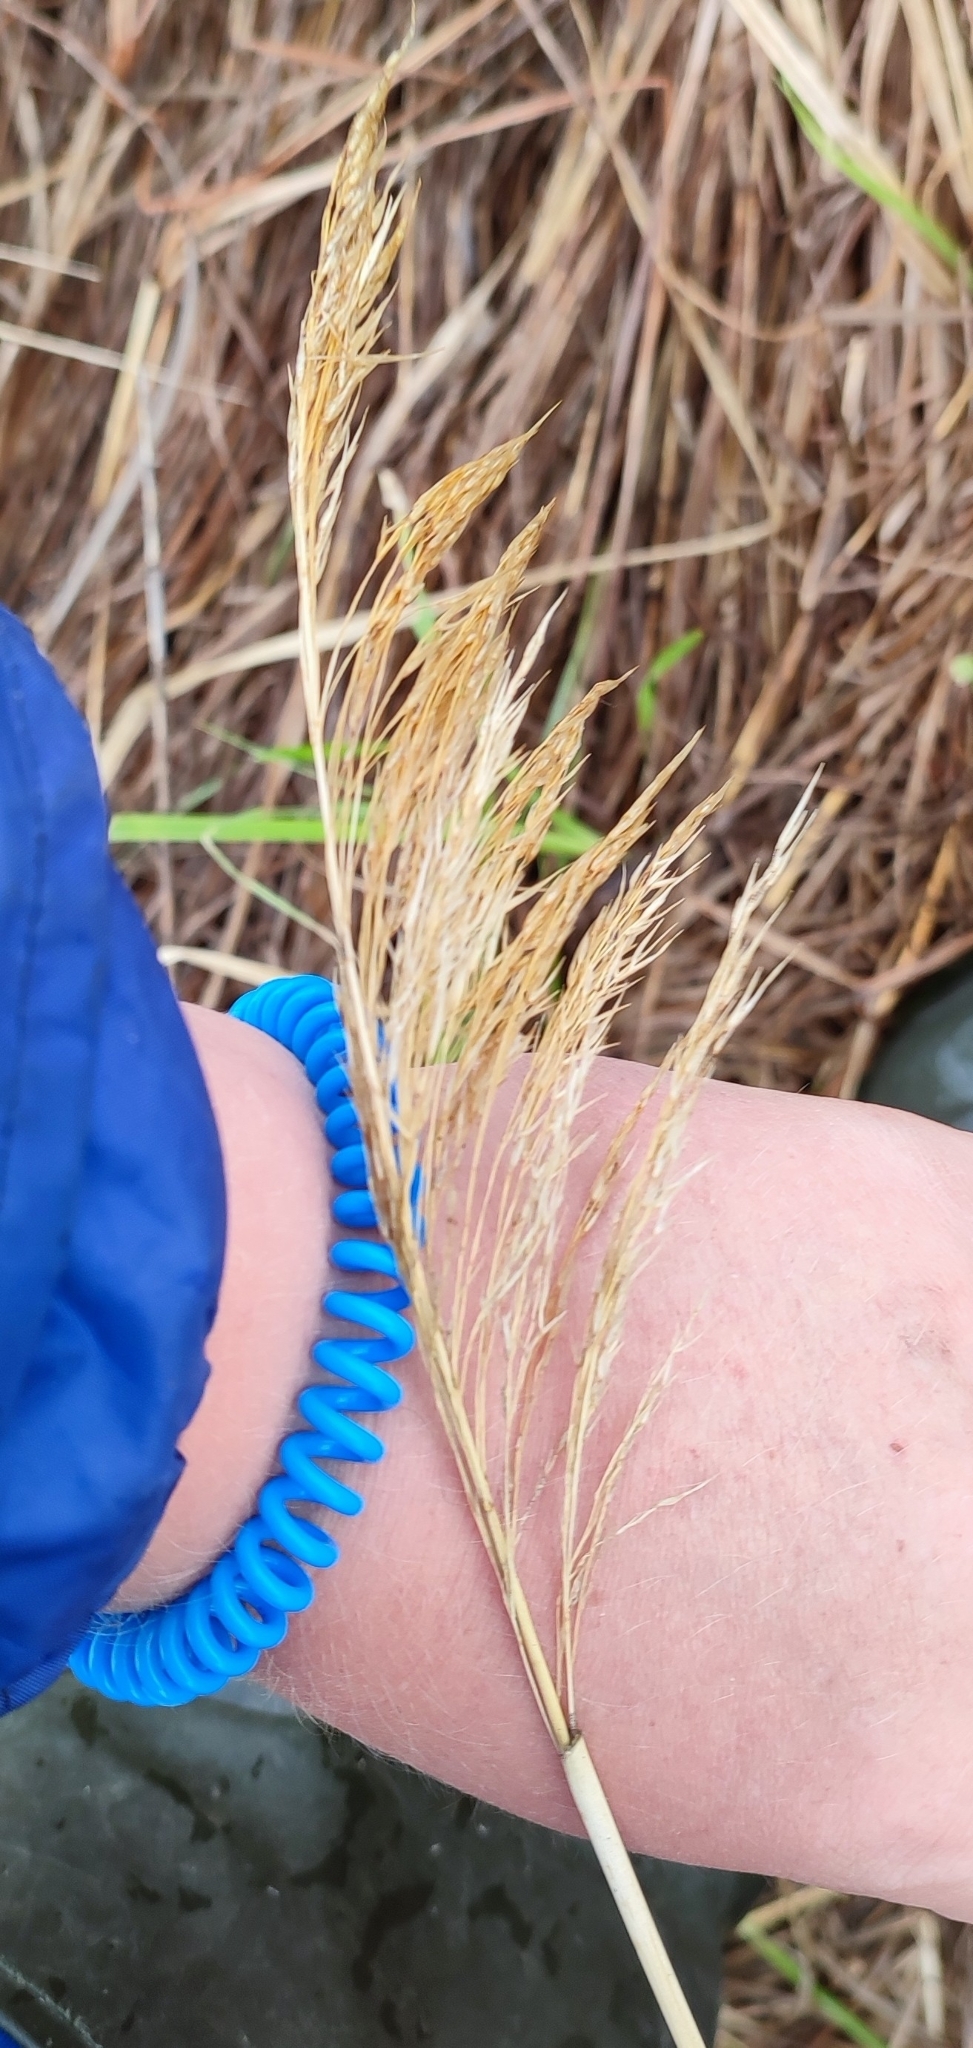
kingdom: Plantae
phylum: Tracheophyta
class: Liliopsida
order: Poales
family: Poaceae
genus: Phragmites
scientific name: Phragmites australis
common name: Common reed
